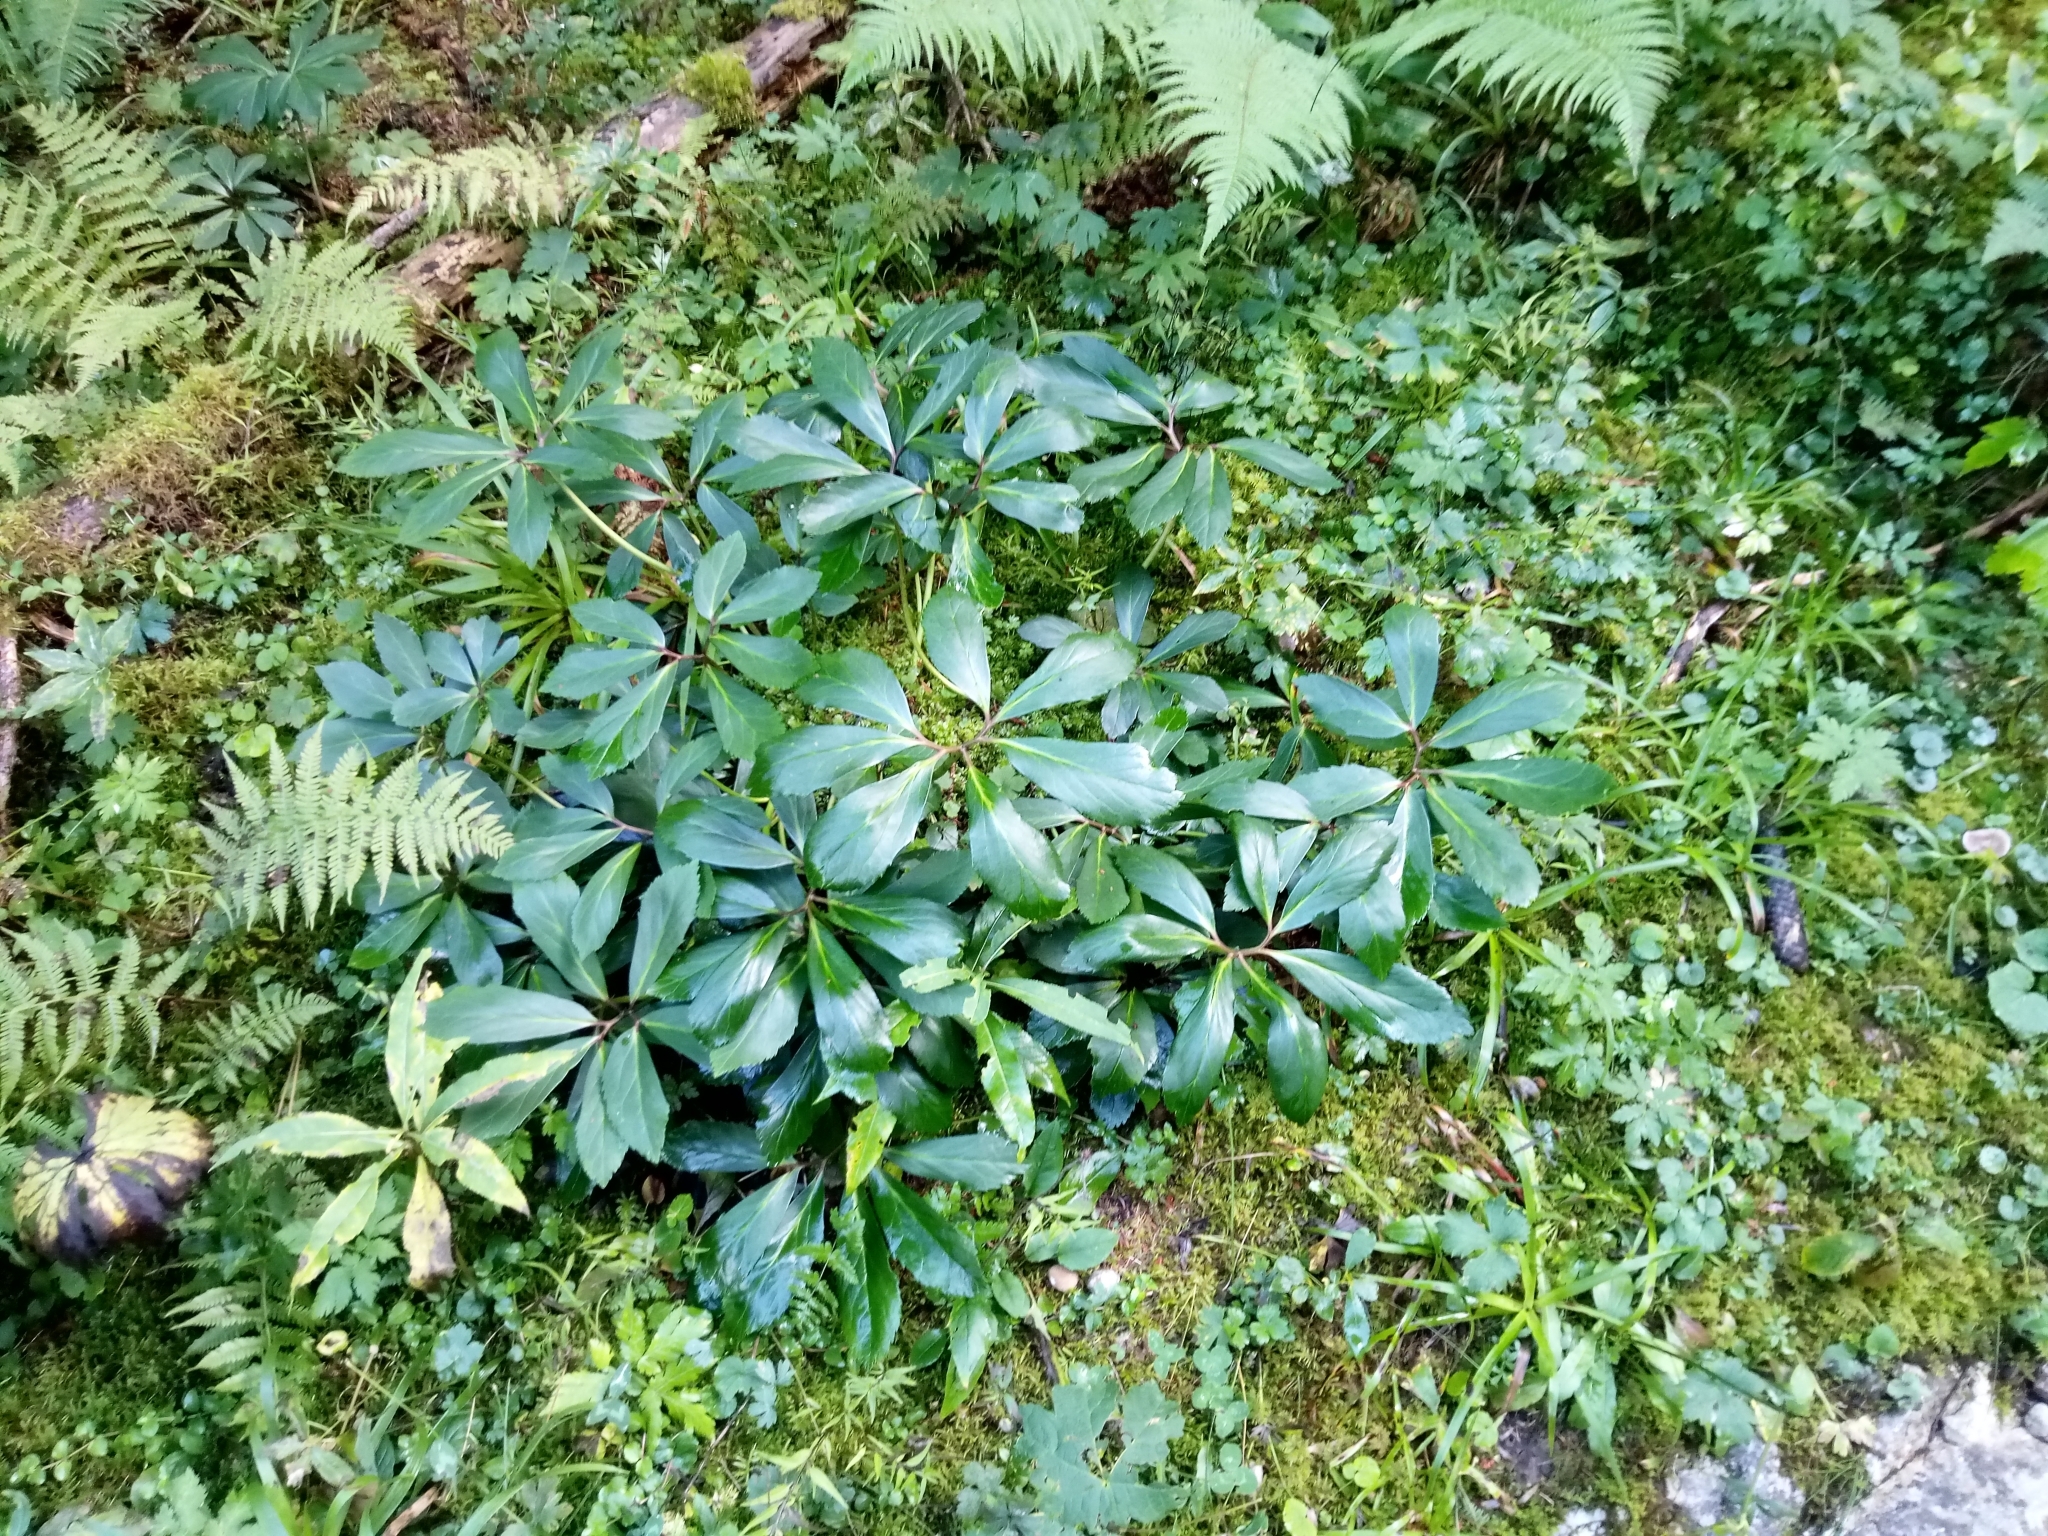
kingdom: Plantae
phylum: Tracheophyta
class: Magnoliopsida
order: Ranunculales
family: Ranunculaceae
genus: Helleborus
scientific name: Helleborus niger
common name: Black hellebore
